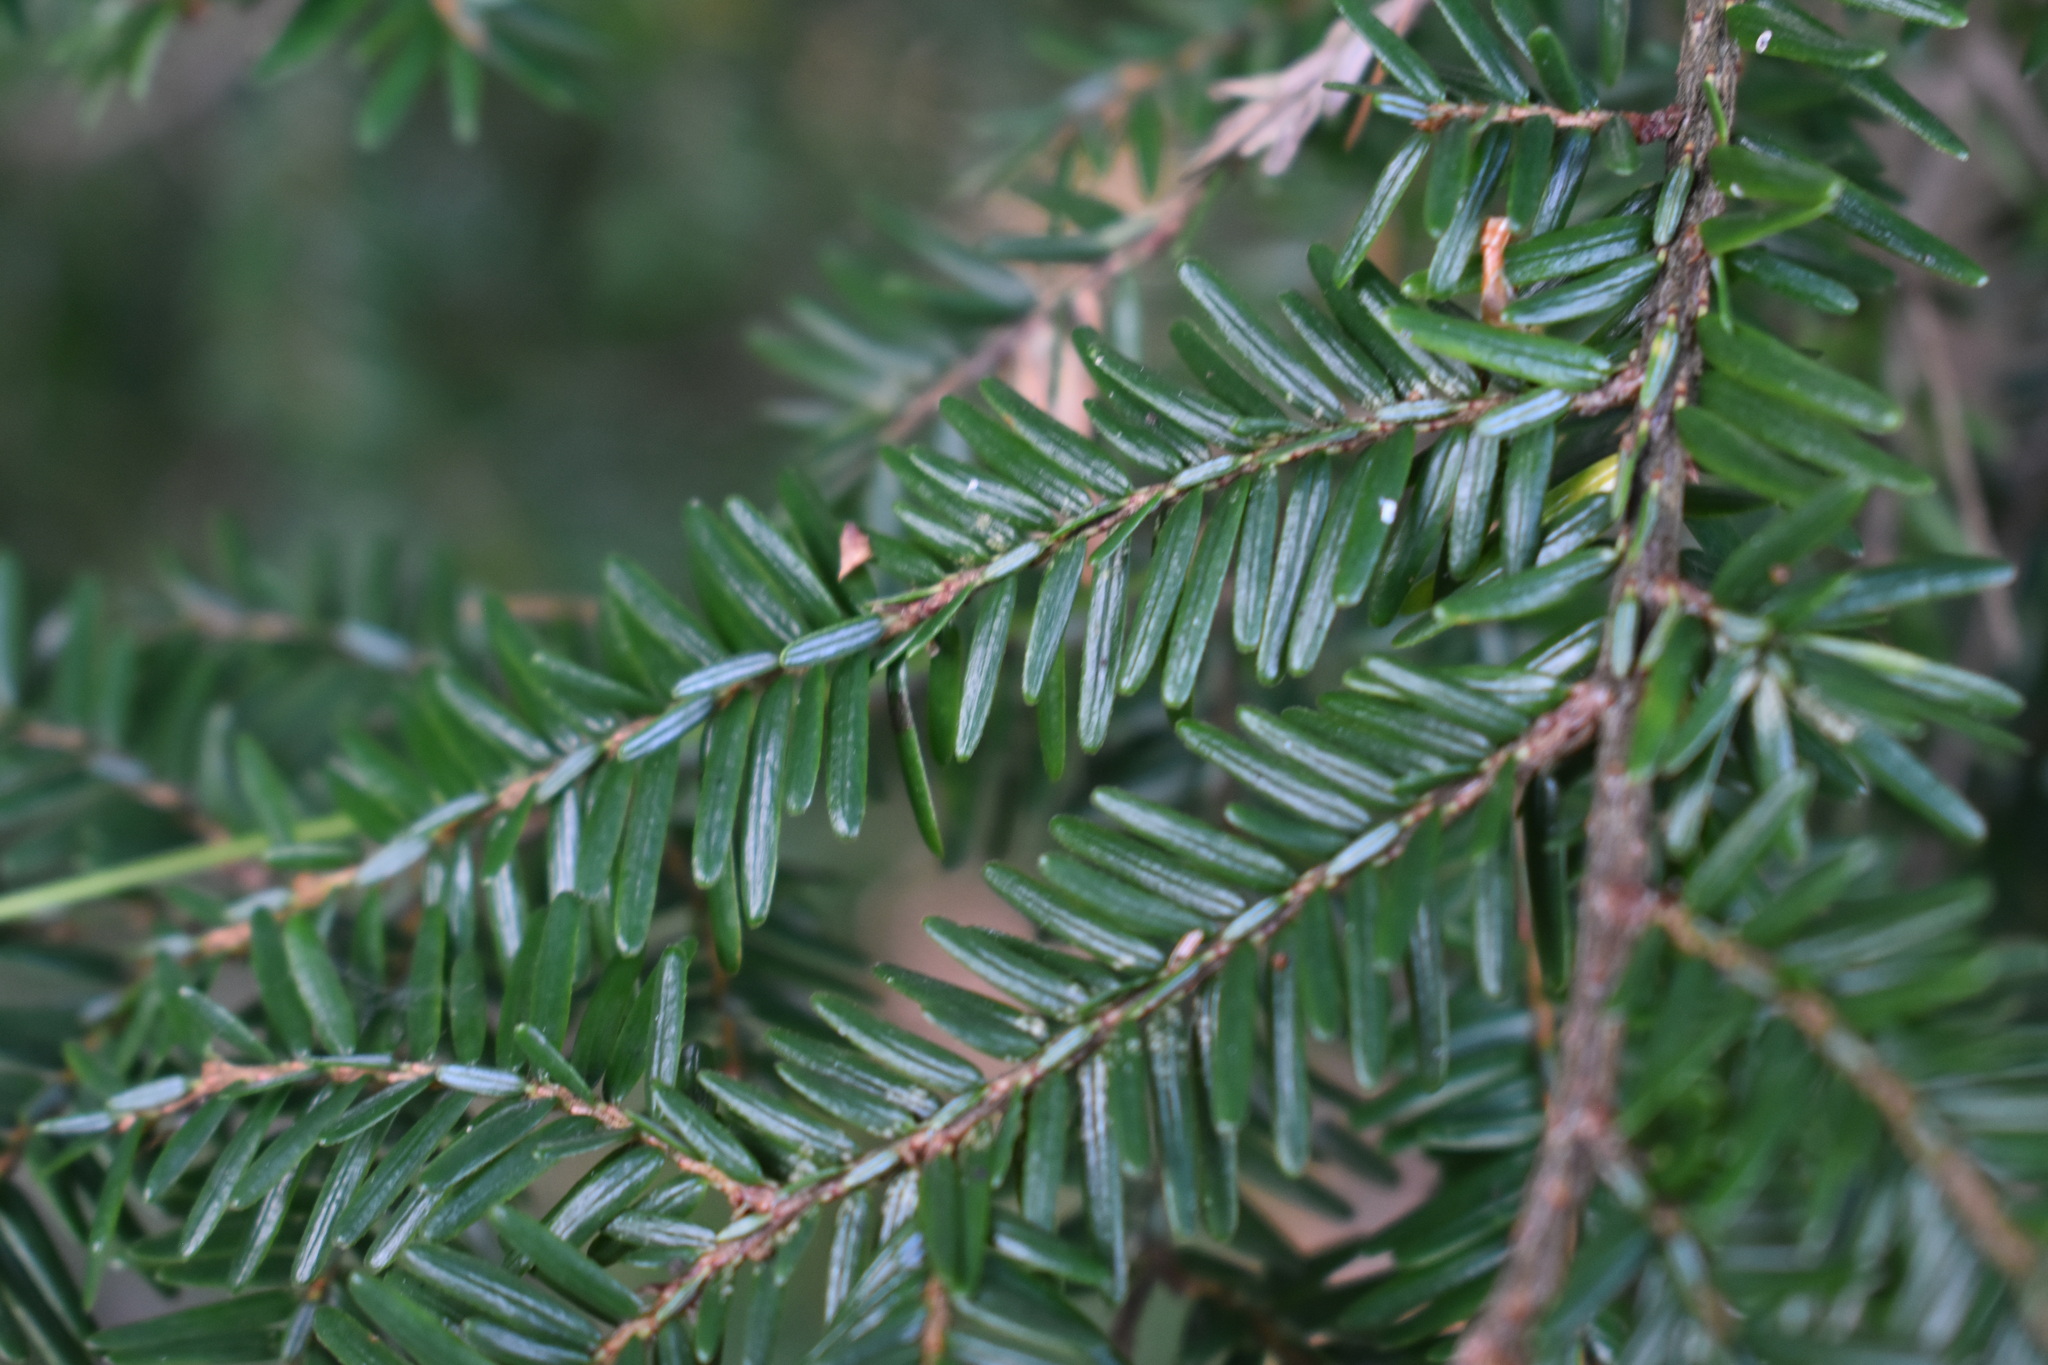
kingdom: Plantae
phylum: Tracheophyta
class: Pinopsida
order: Pinales
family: Pinaceae
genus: Tsuga
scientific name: Tsuga canadensis
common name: Eastern hemlock
